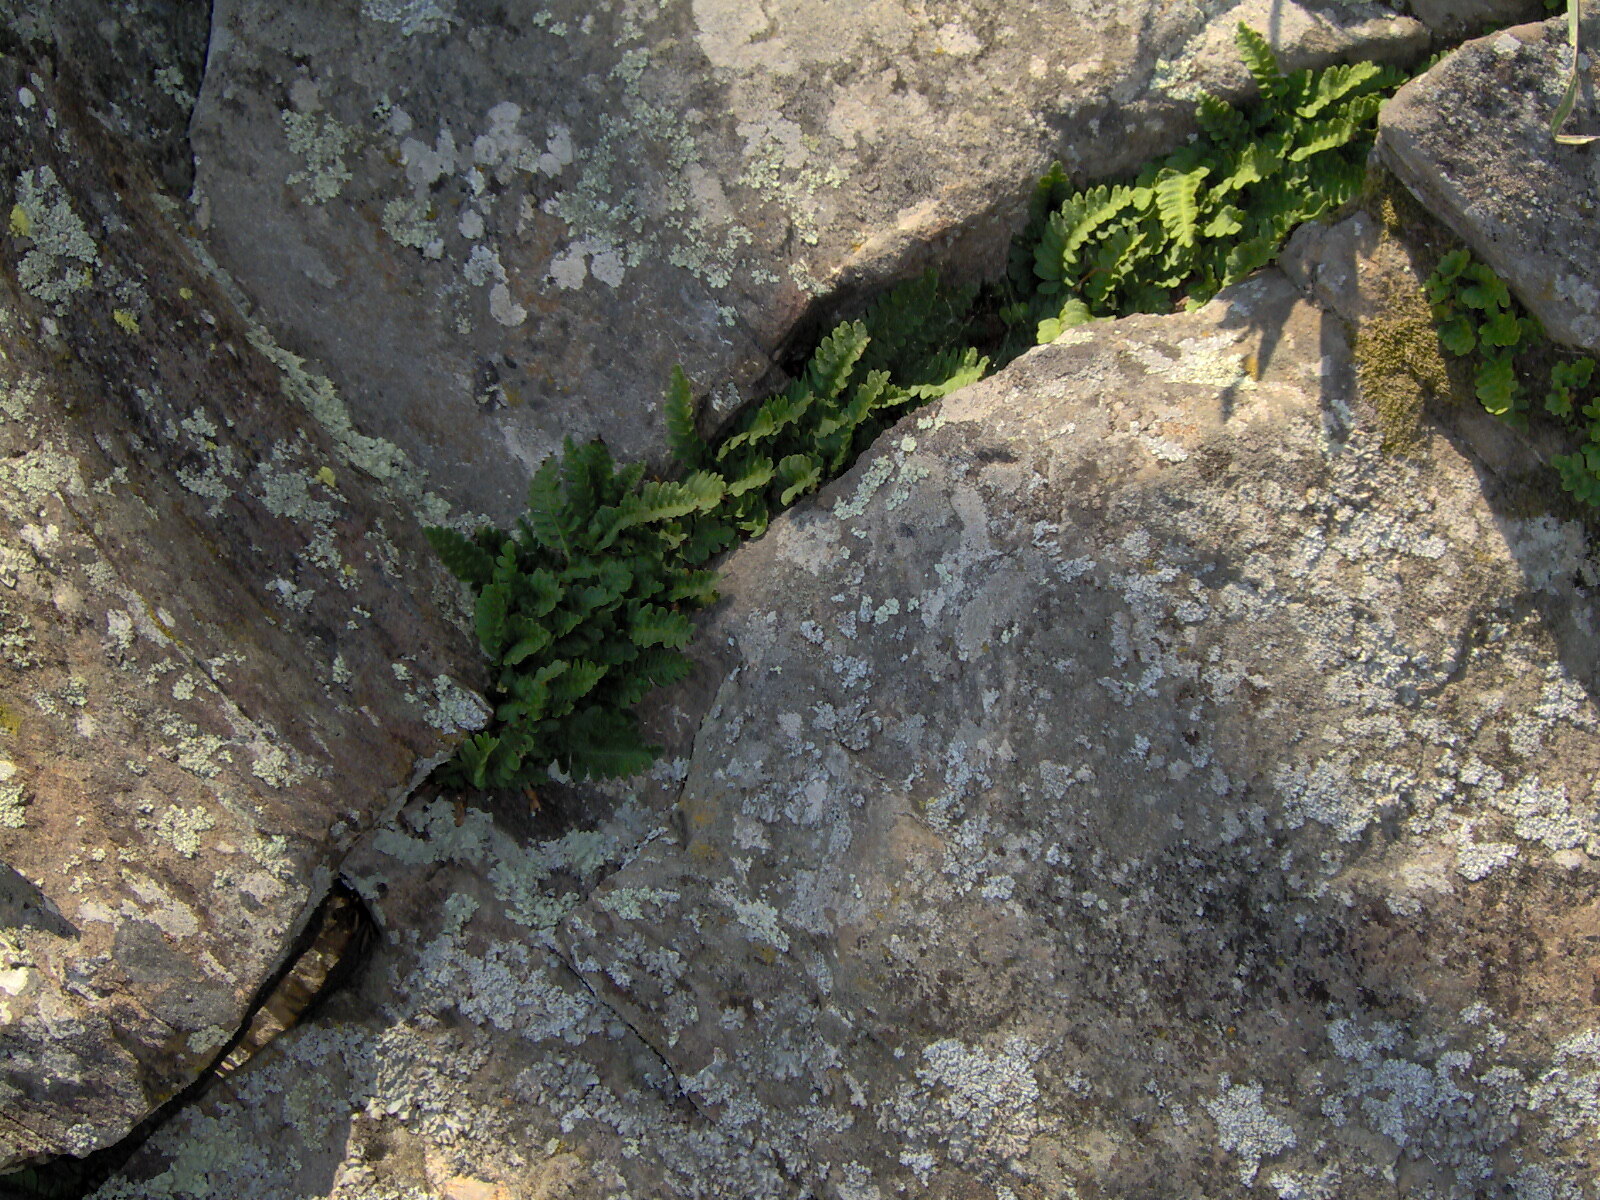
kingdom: Plantae
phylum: Tracheophyta
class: Polypodiopsida
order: Polypodiales
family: Polypodiaceae
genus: Polypodium
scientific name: Polypodium saximontanum
